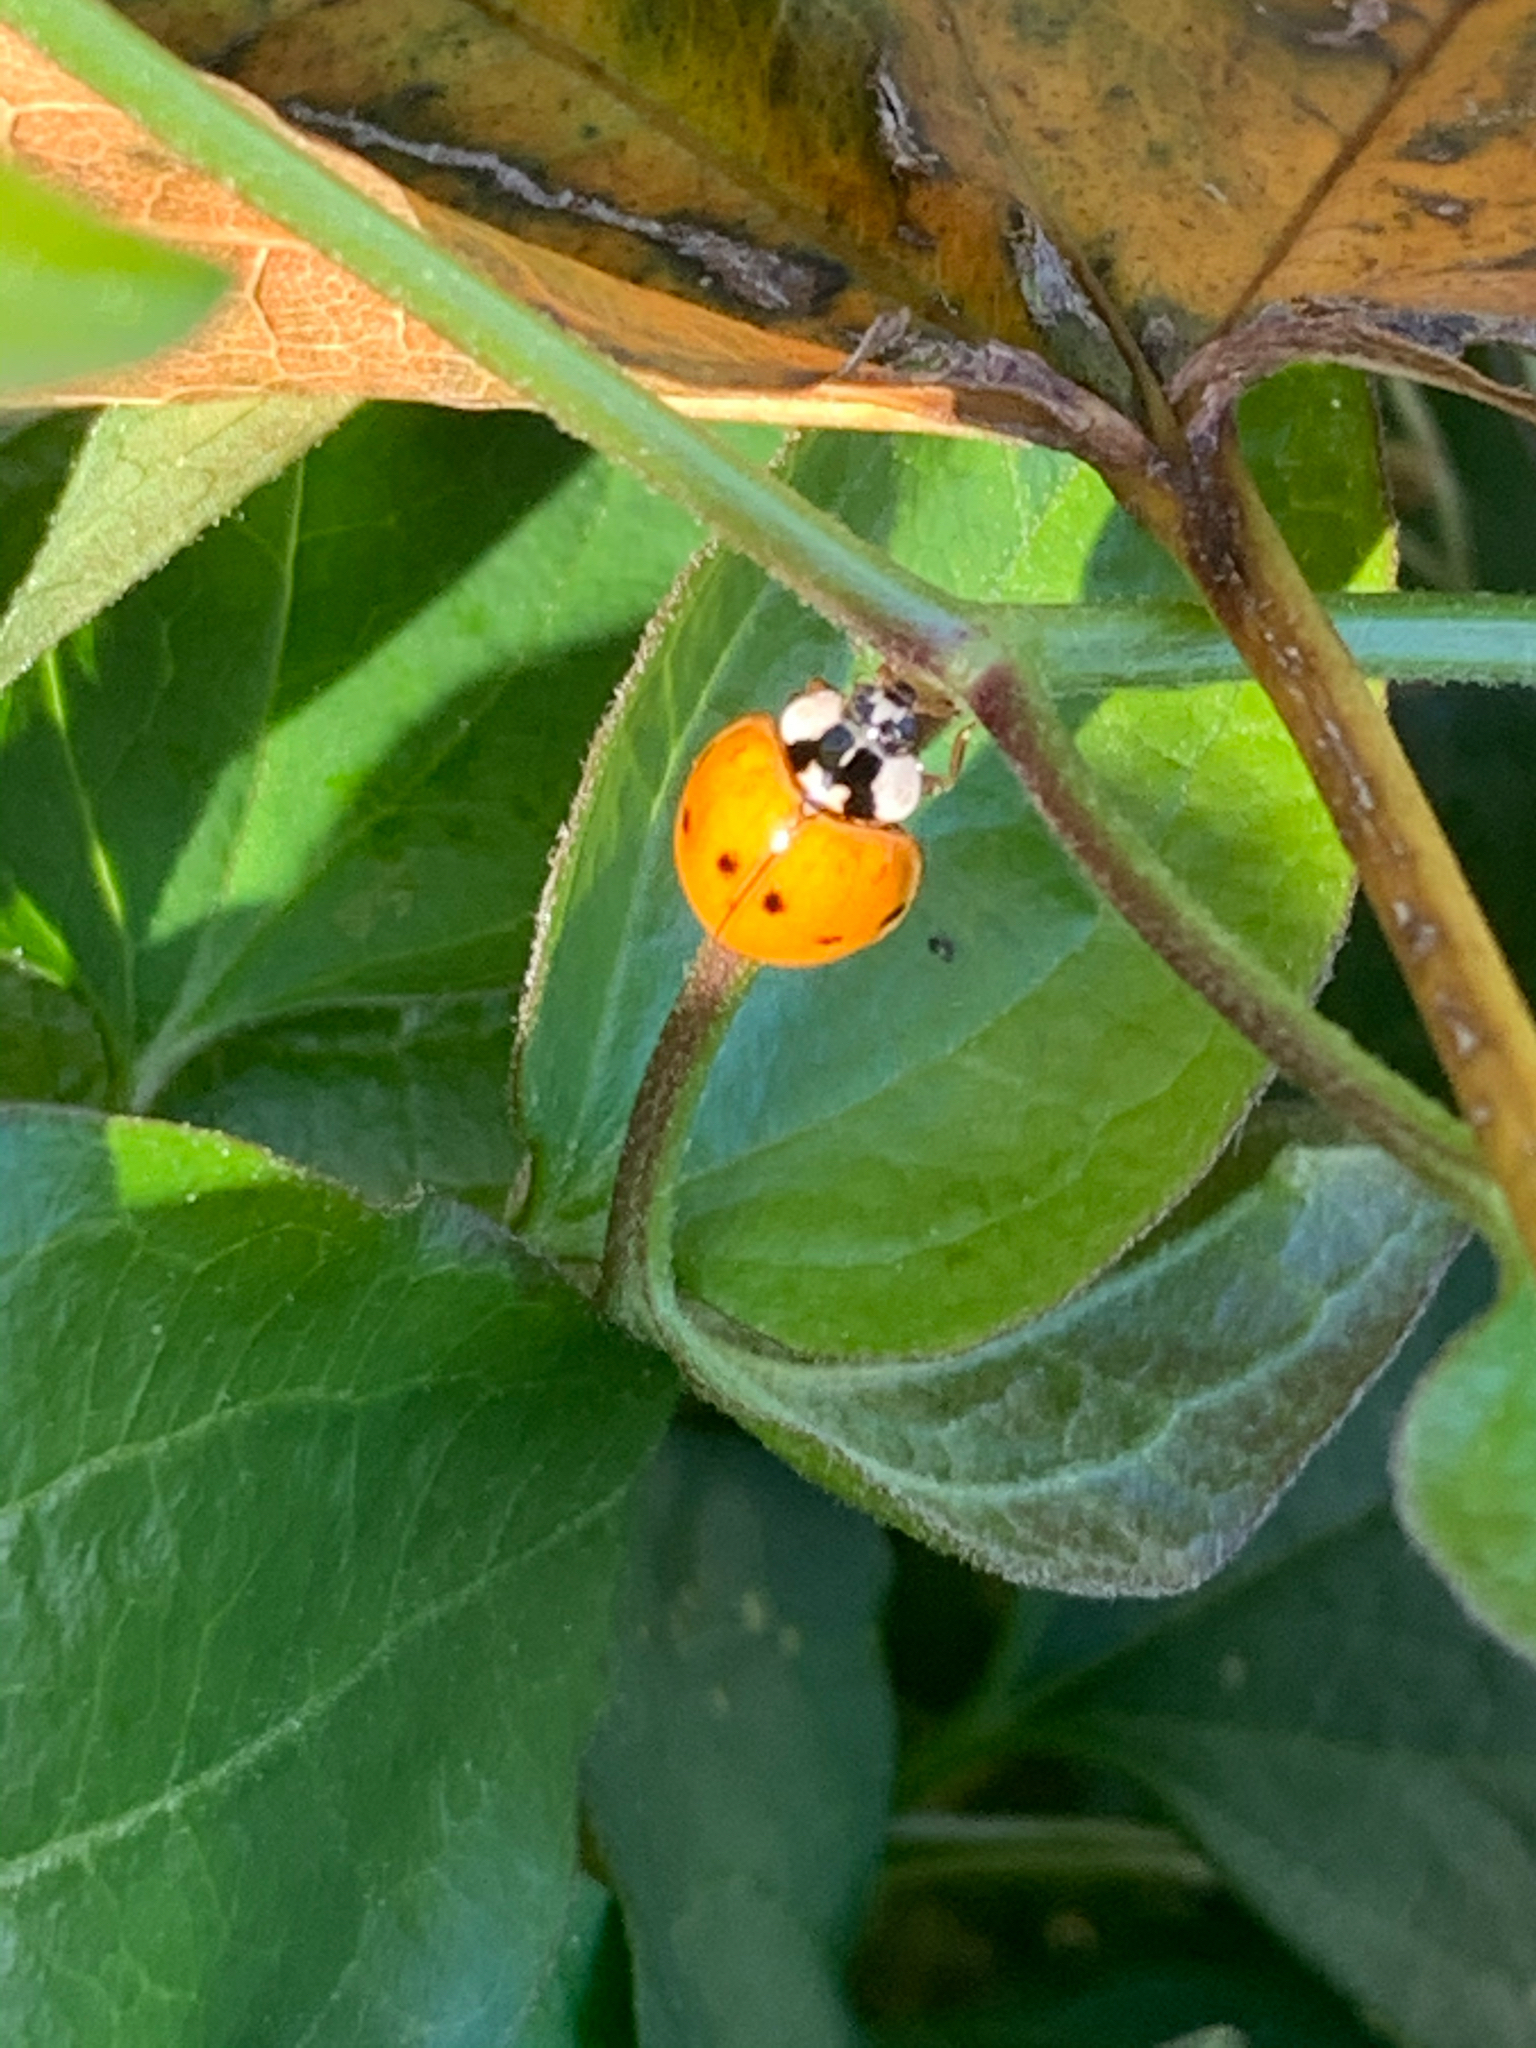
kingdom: Animalia
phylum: Arthropoda
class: Insecta
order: Coleoptera
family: Coccinellidae
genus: Harmonia
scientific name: Harmonia axyridis
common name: Harlequin ladybird
